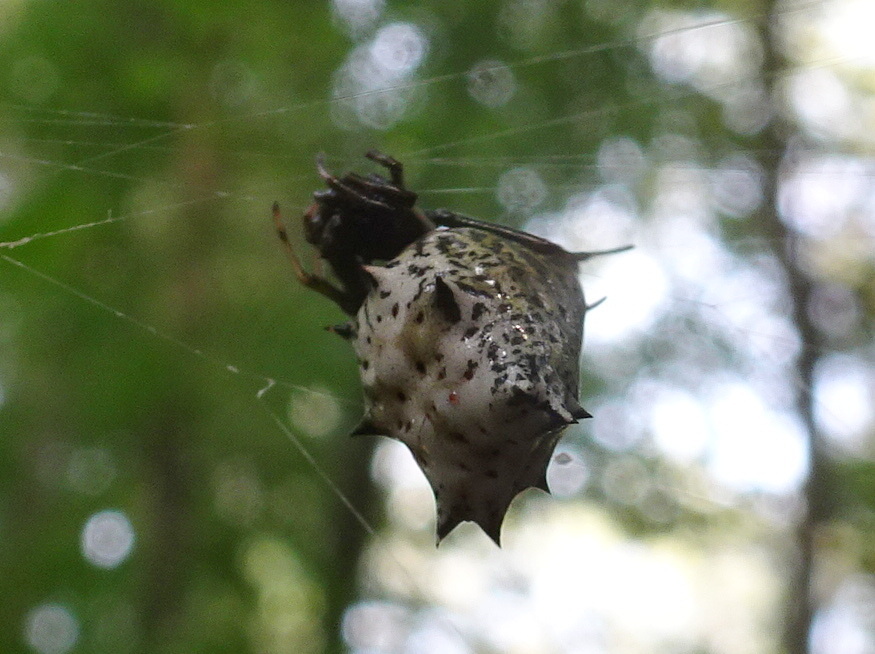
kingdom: Animalia
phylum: Arthropoda
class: Arachnida
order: Araneae
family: Araneidae
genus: Micrathena
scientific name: Micrathena gracilis
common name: Orb weavers
